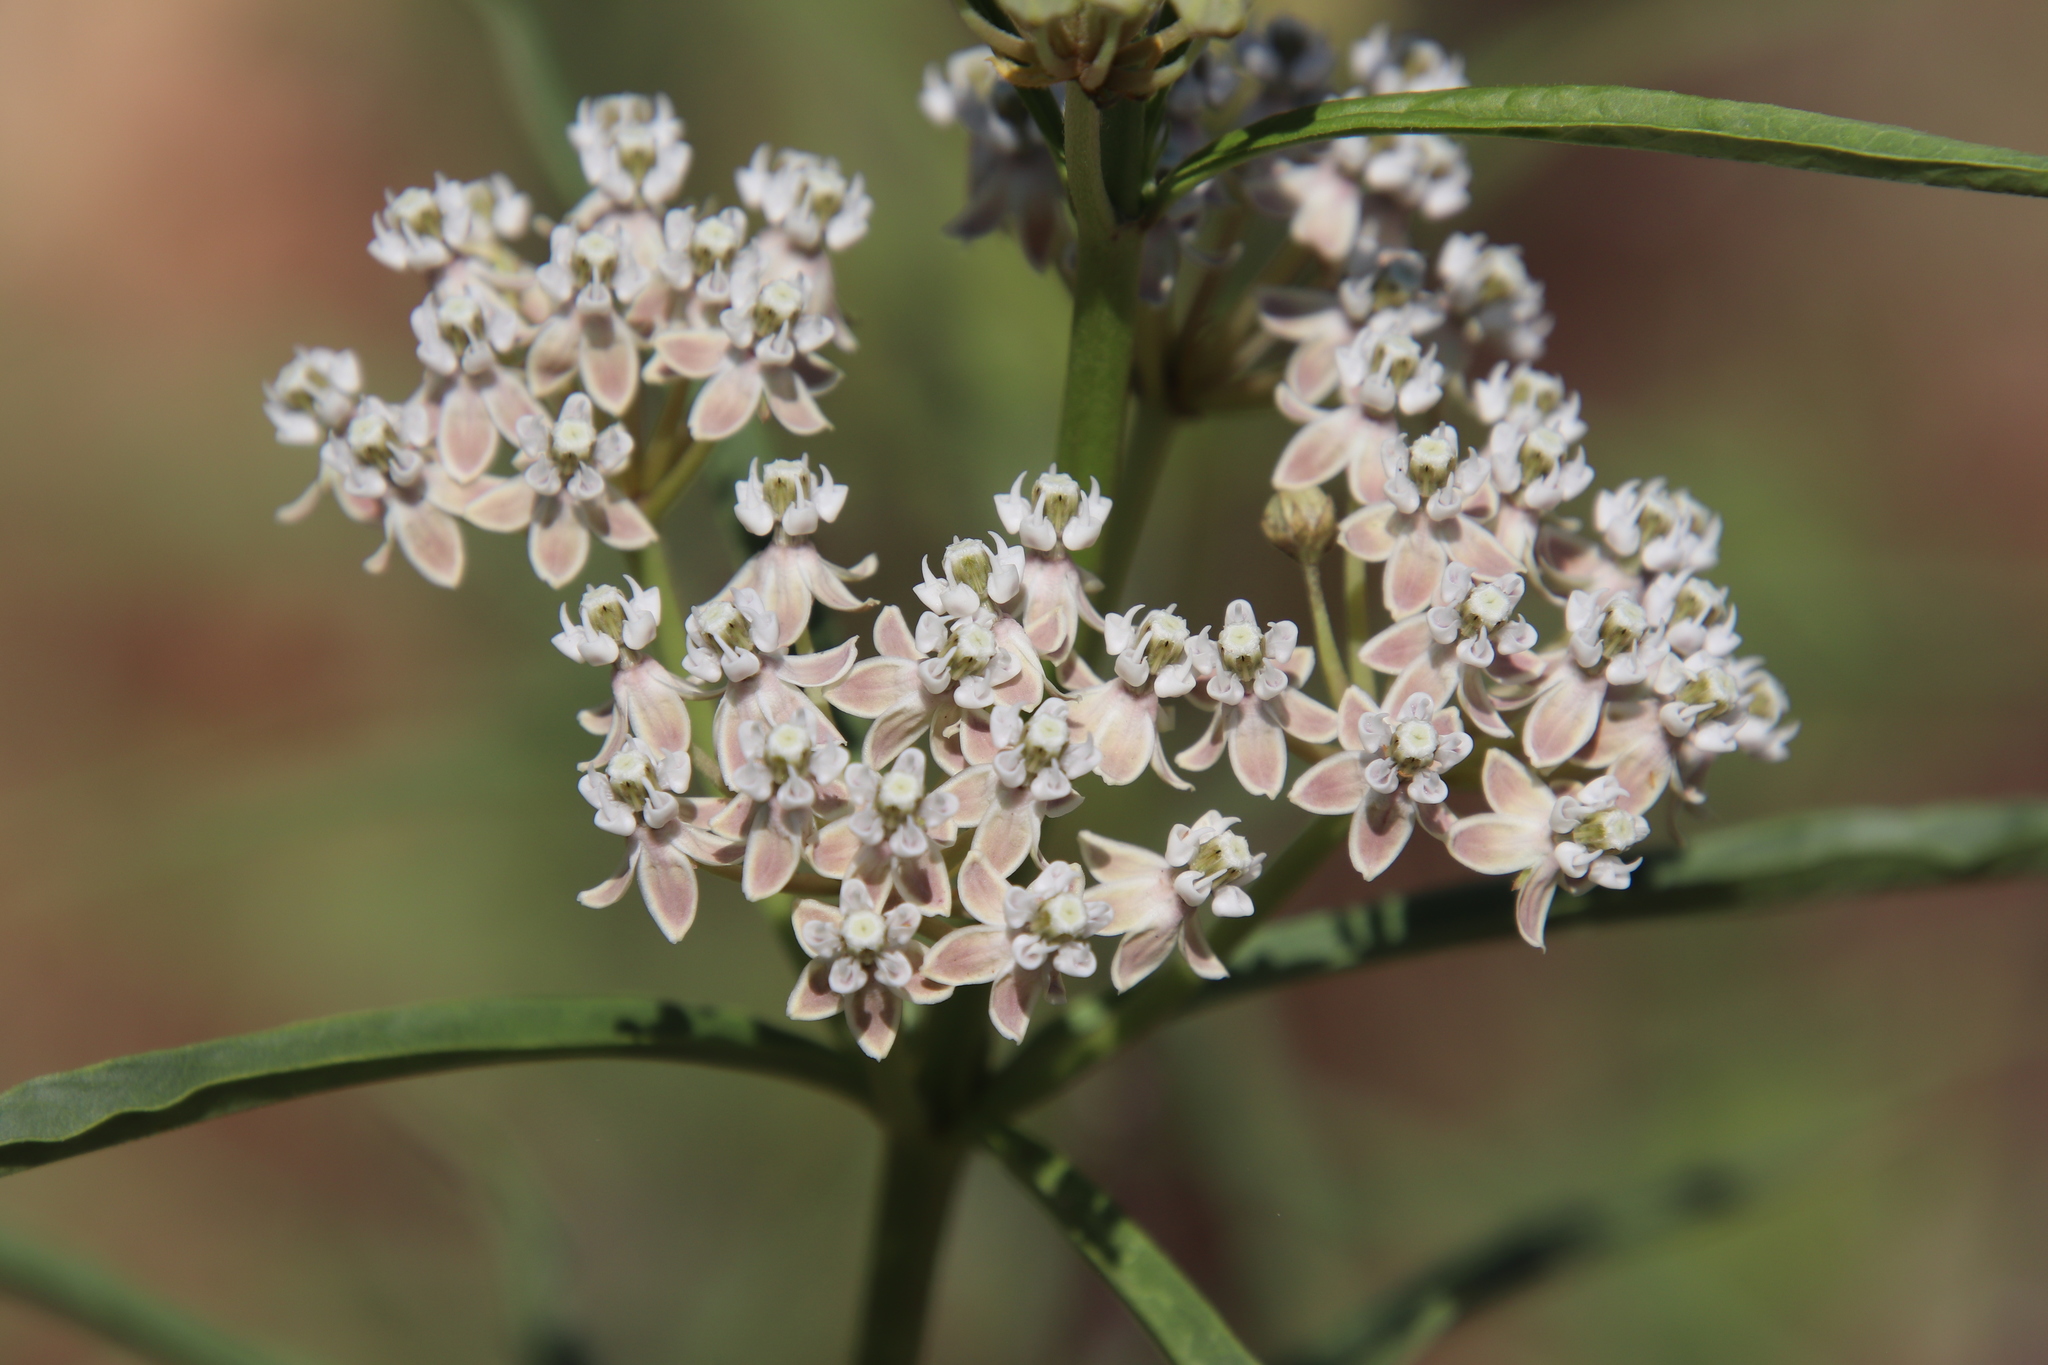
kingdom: Plantae
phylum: Tracheophyta
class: Magnoliopsida
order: Gentianales
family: Apocynaceae
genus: Asclepias
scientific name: Asclepias fascicularis
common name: Mexican milkweed
